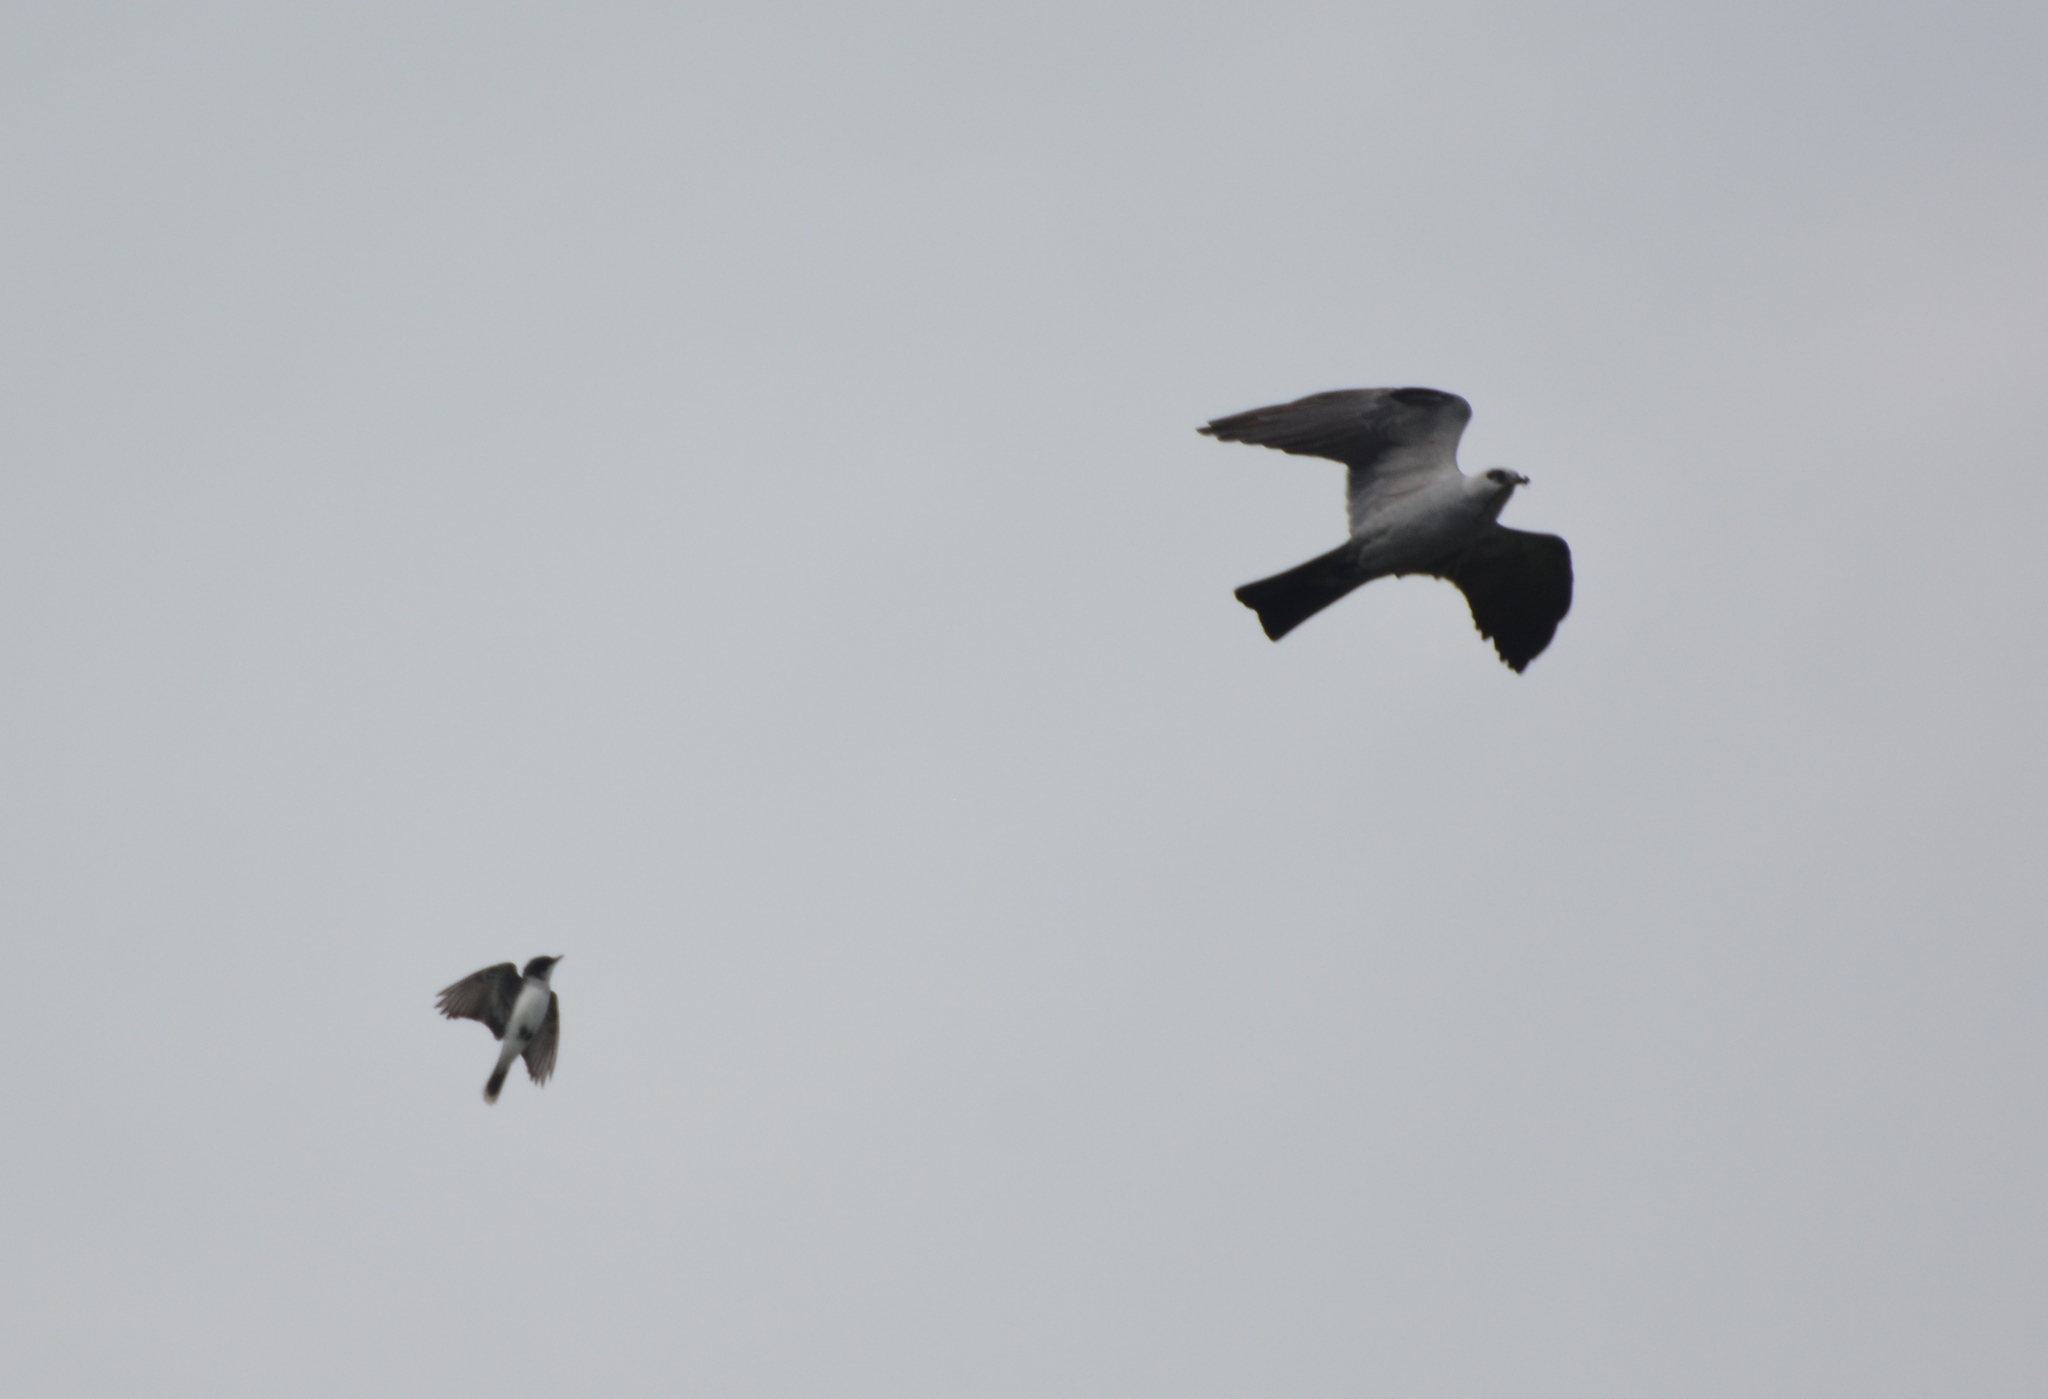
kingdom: Animalia
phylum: Chordata
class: Aves
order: Accipitriformes
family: Accipitridae
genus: Ictinia
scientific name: Ictinia mississippiensis
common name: Mississippi kite
